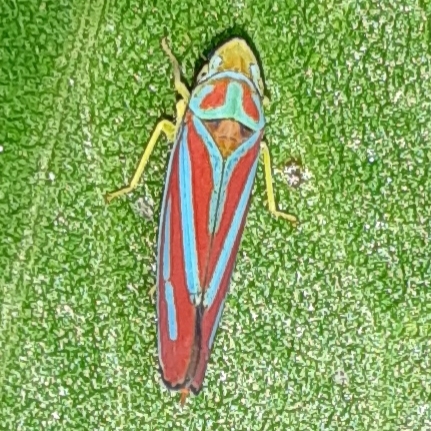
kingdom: Animalia
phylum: Arthropoda
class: Insecta
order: Hemiptera
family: Cicadellidae
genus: Graphocephala
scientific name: Graphocephala coccinea
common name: Candy-striped leafhopper
